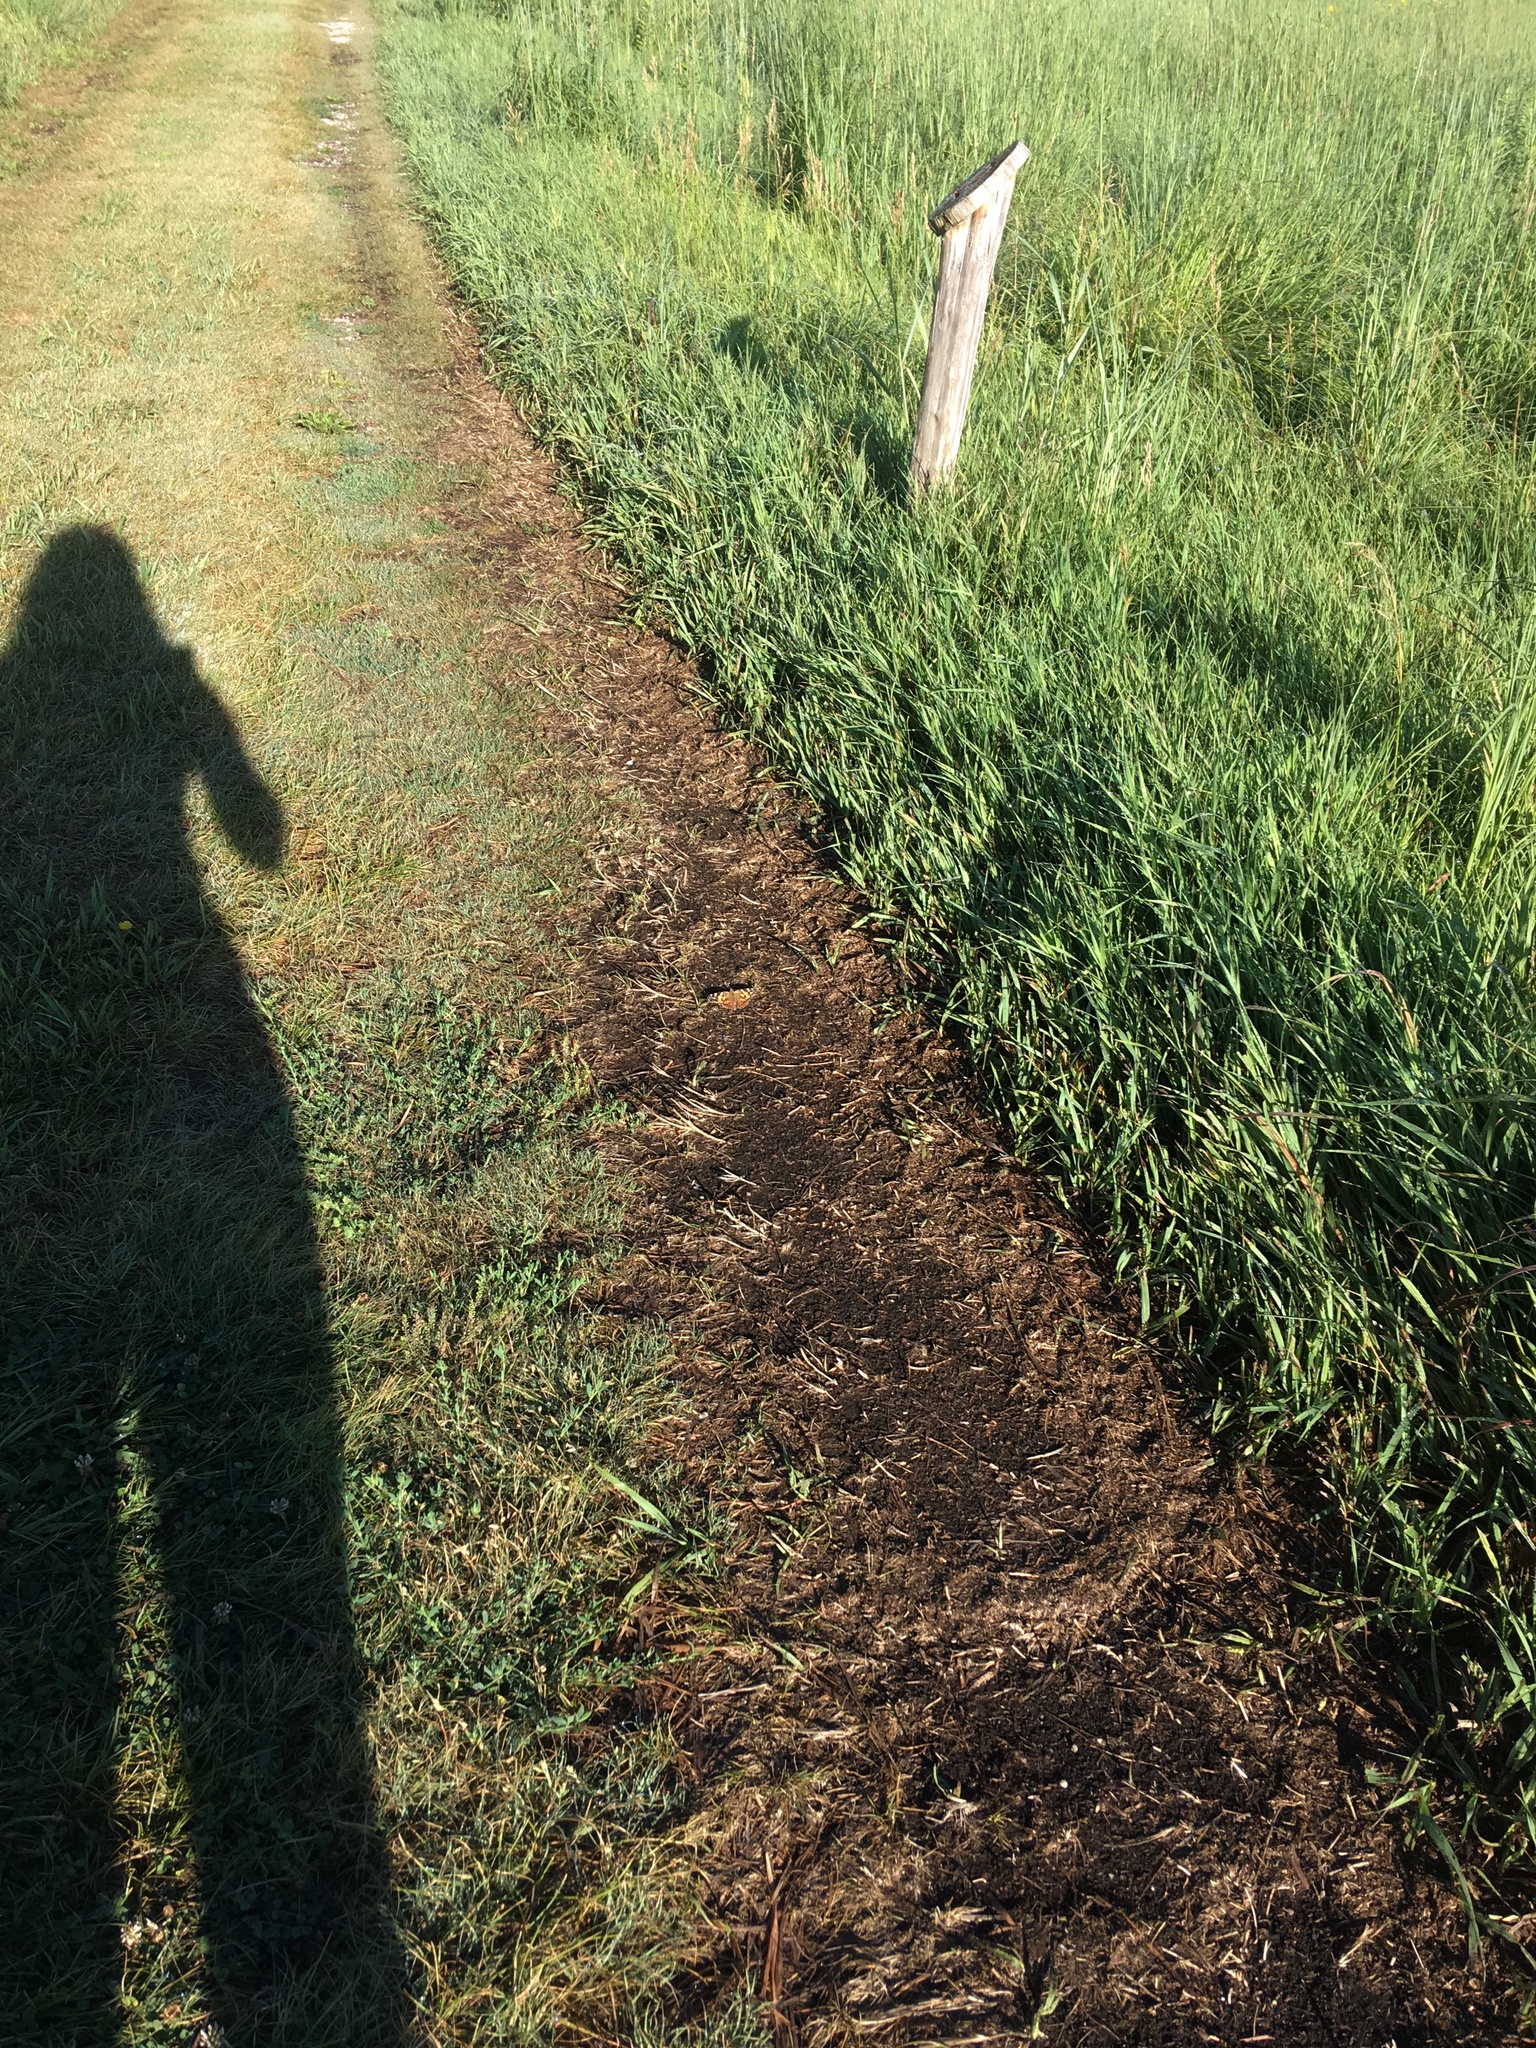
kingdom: Animalia
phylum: Arthropoda
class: Insecta
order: Lepidoptera
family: Nymphalidae
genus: Vanessa
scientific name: Vanessa cardui
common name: Painted lady
